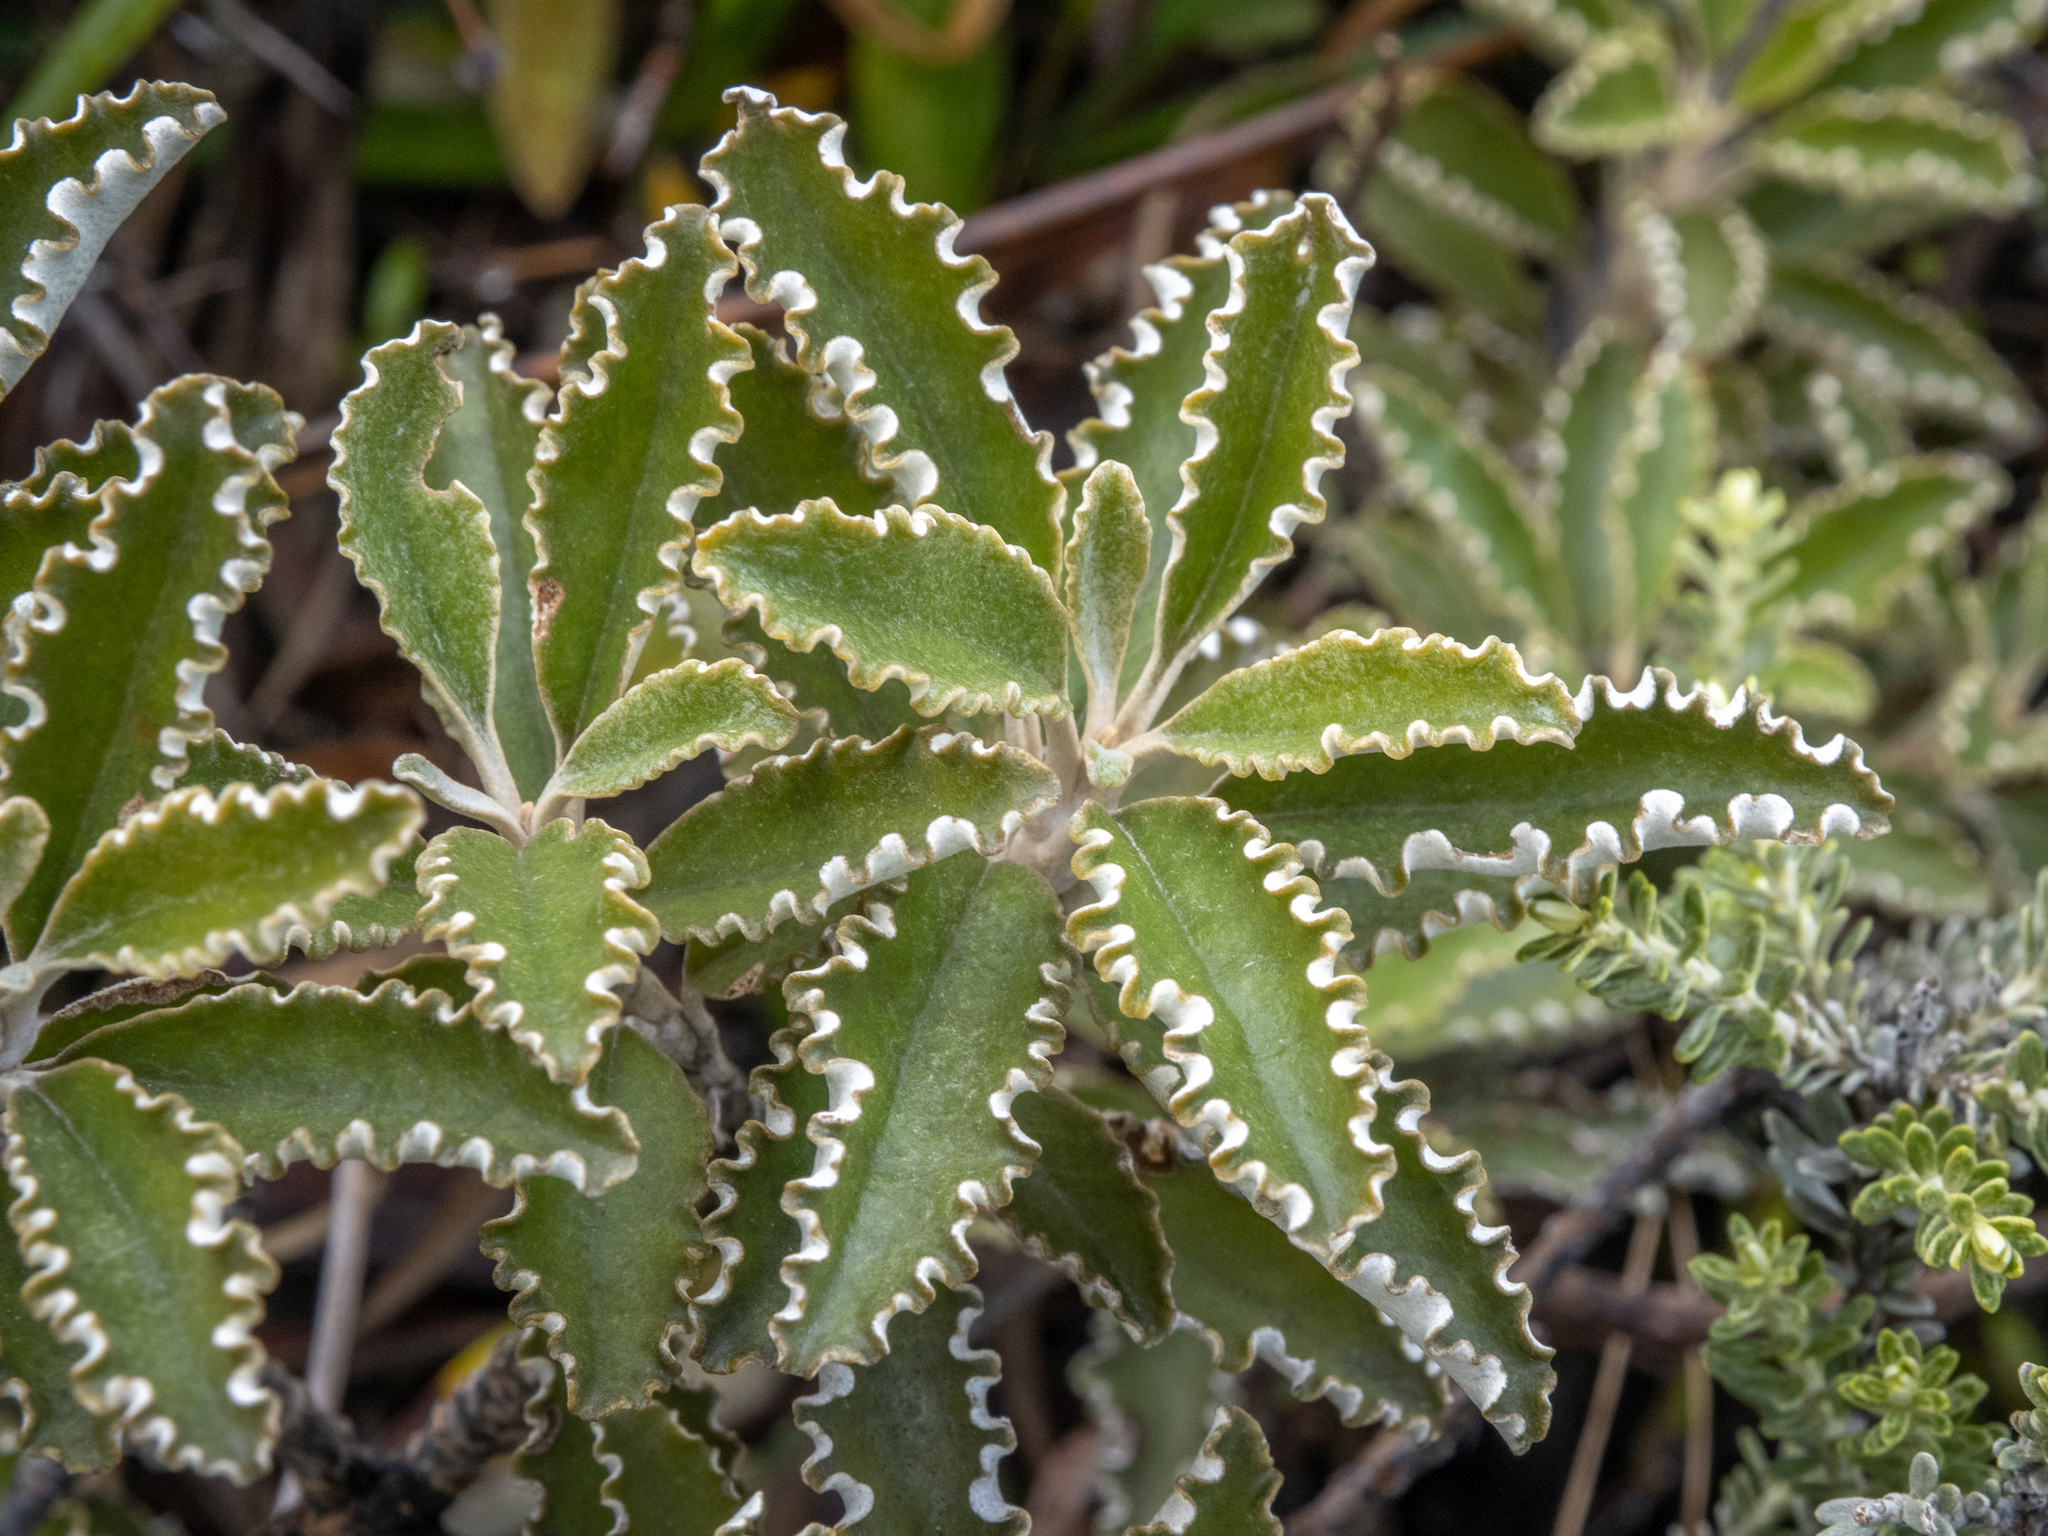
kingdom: Plantae
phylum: Tracheophyta
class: Magnoliopsida
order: Asterales
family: Asteraceae
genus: Brachyglottis
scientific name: Brachyglottis monroi
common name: Monro's ragwort
